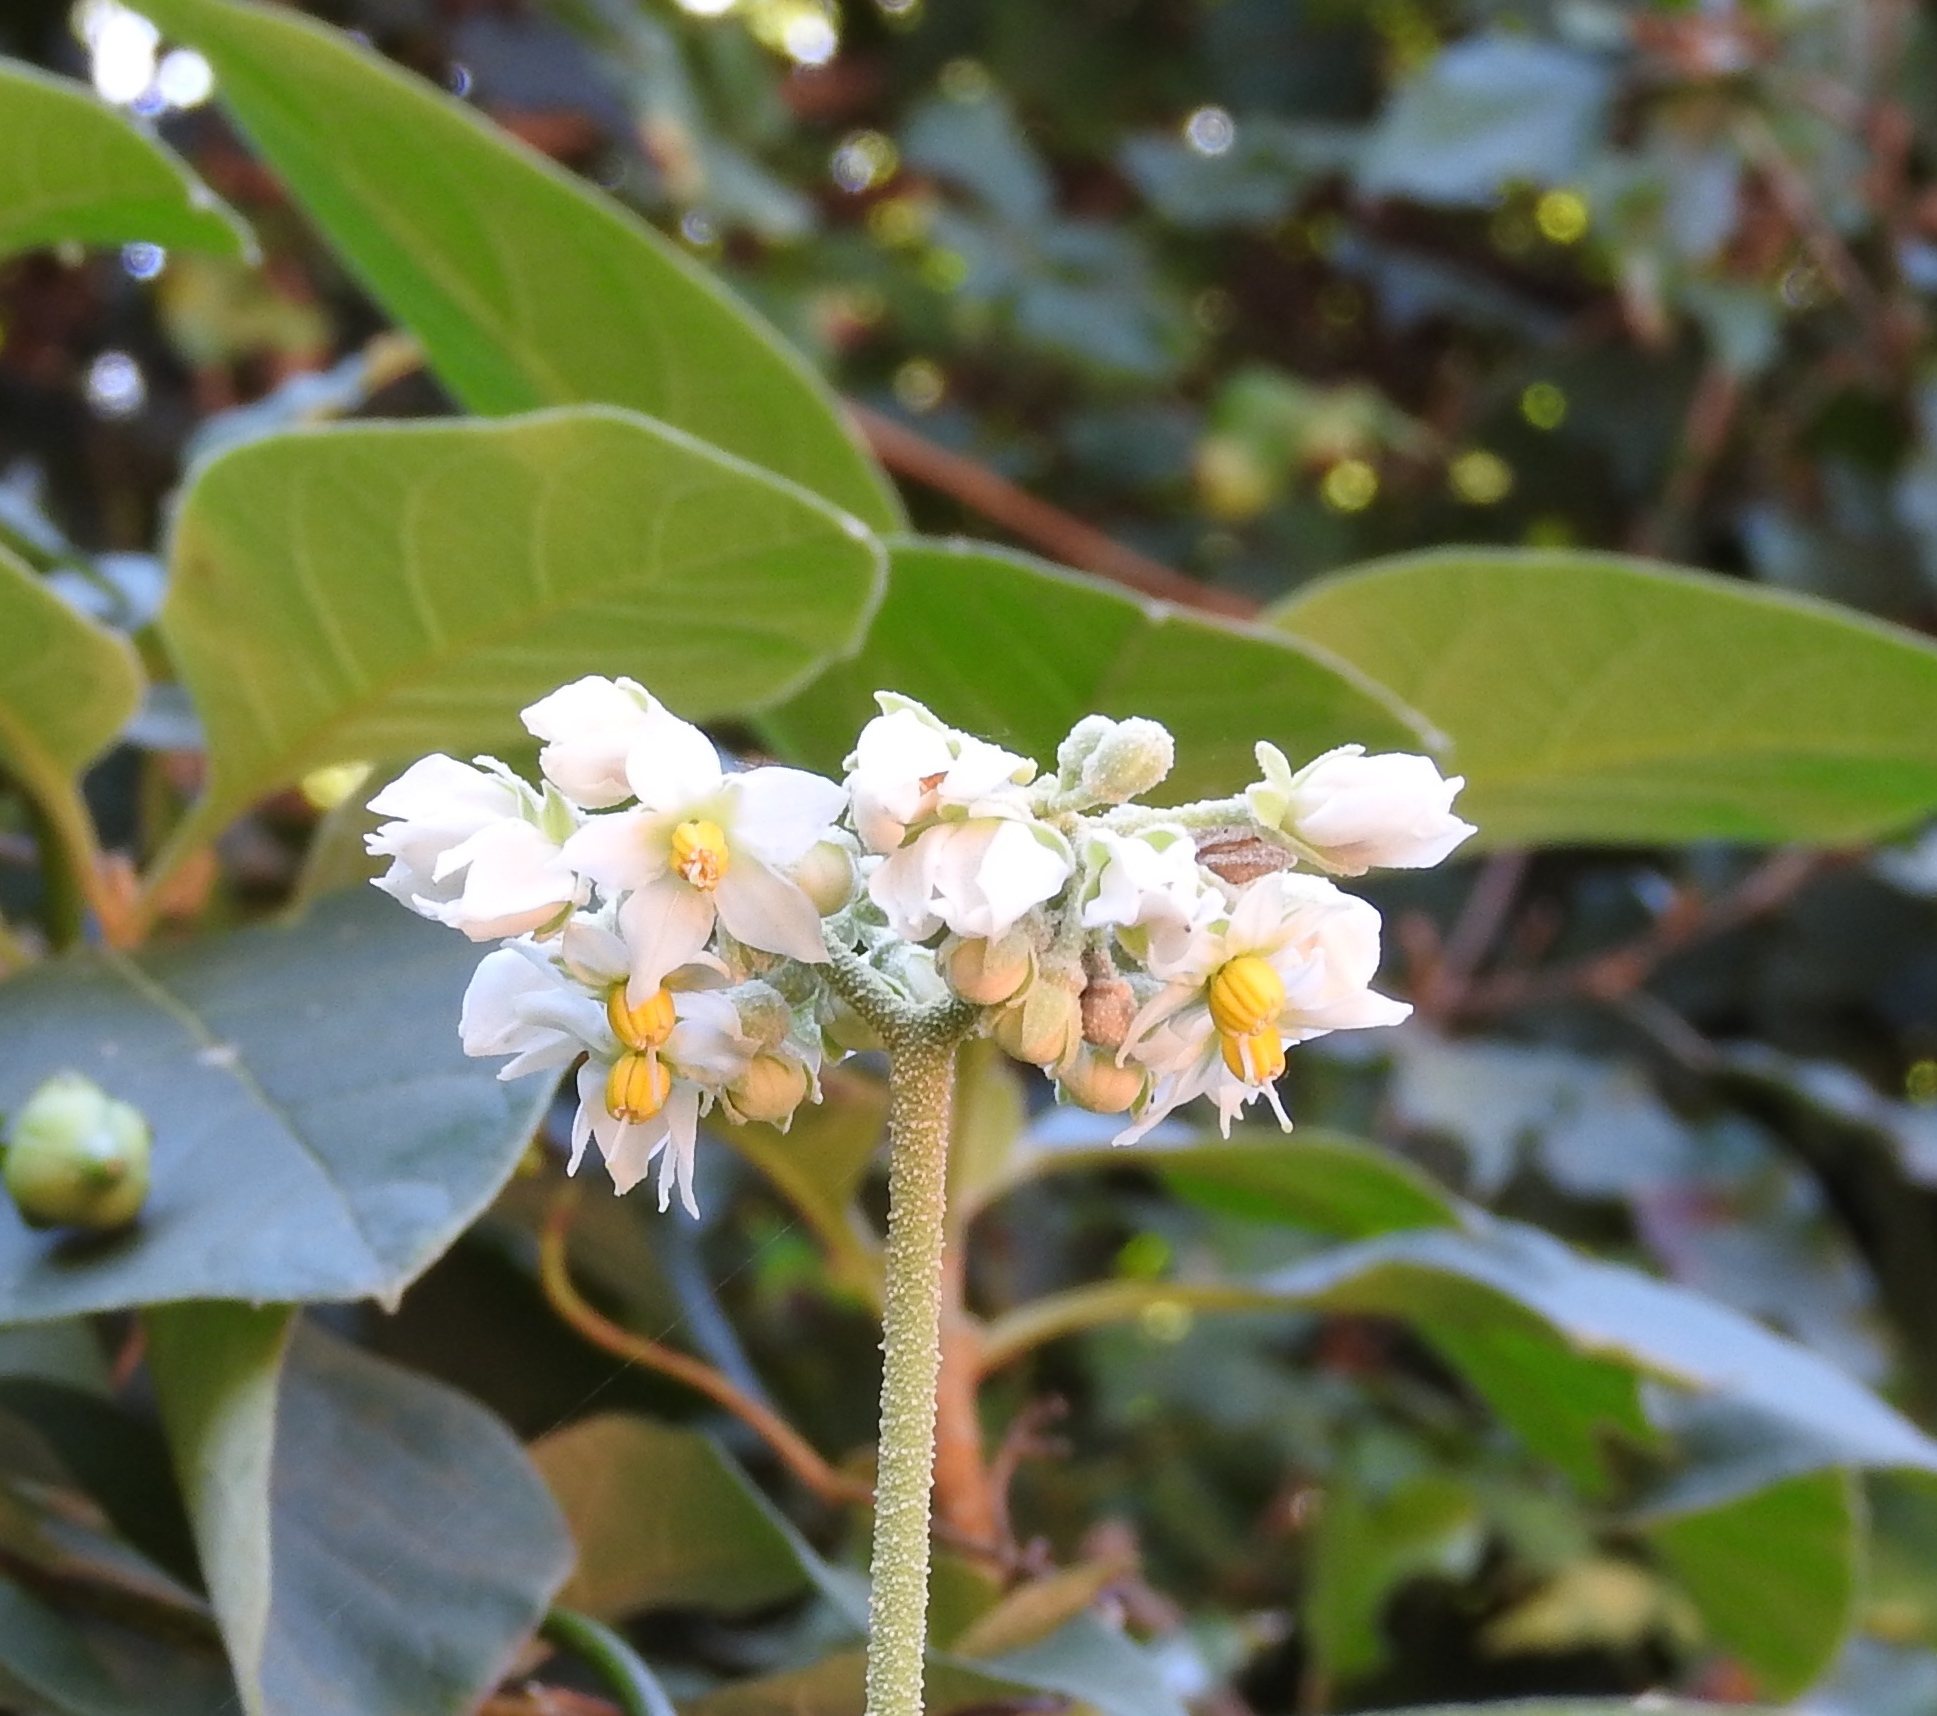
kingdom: Plantae
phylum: Tracheophyta
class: Magnoliopsida
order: Solanales
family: Solanaceae
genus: Solanum
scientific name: Solanum umbellatum
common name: Nightshade
